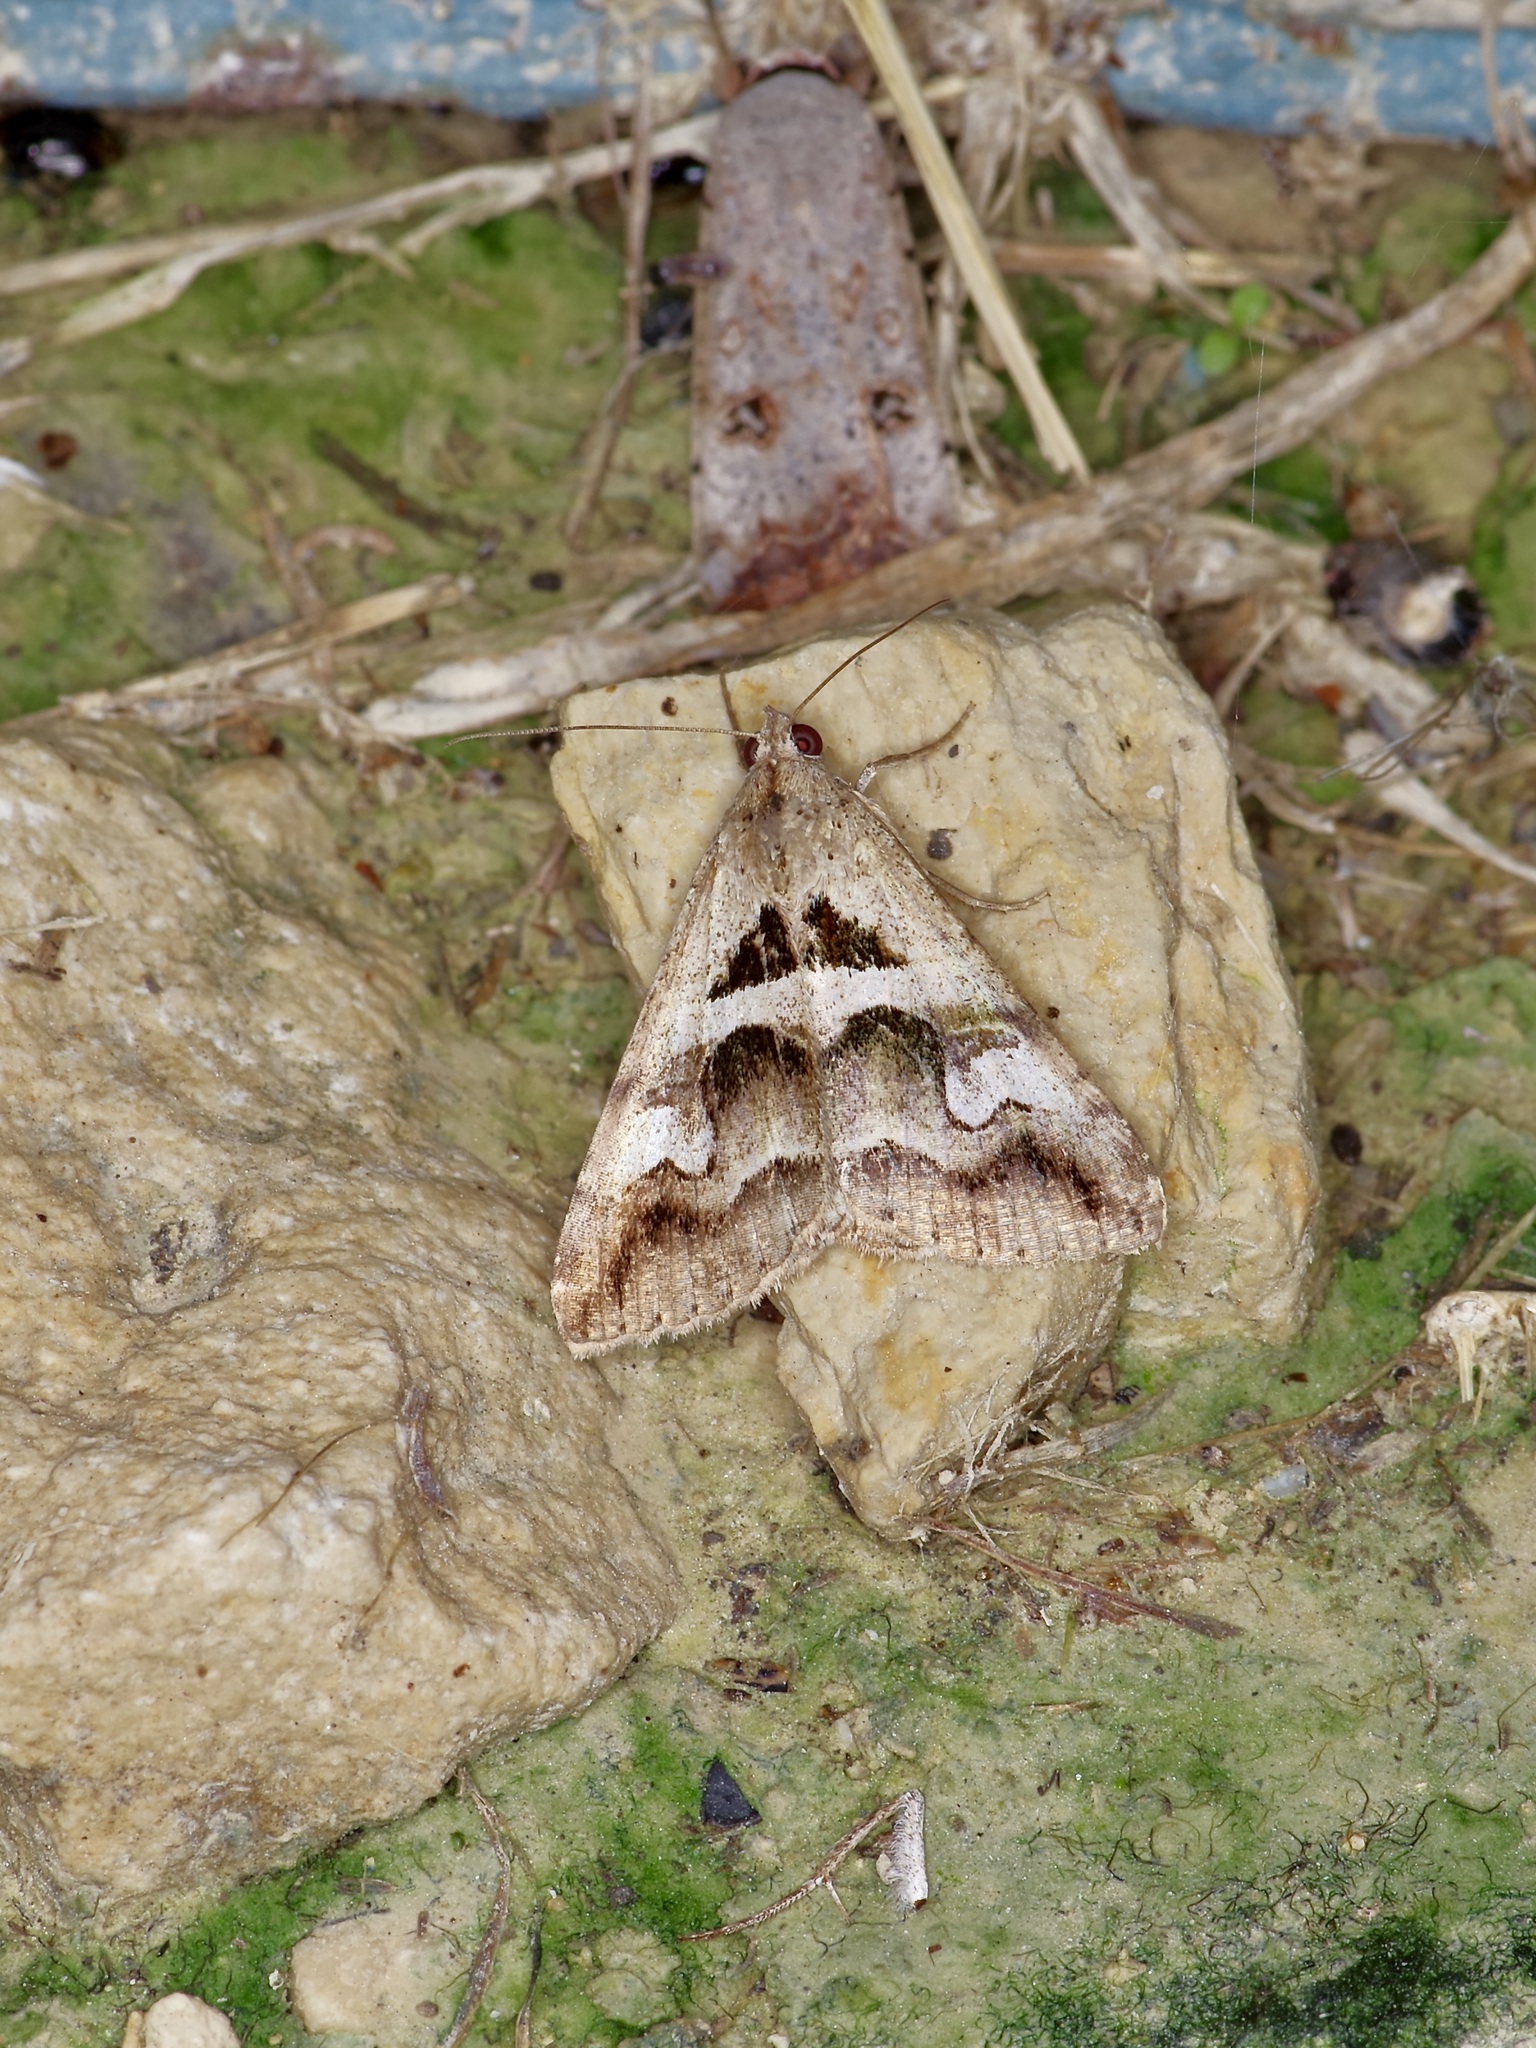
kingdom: Animalia
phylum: Arthropoda
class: Insecta
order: Lepidoptera
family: Erebidae
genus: Melipotis
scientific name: Melipotis cellaris
